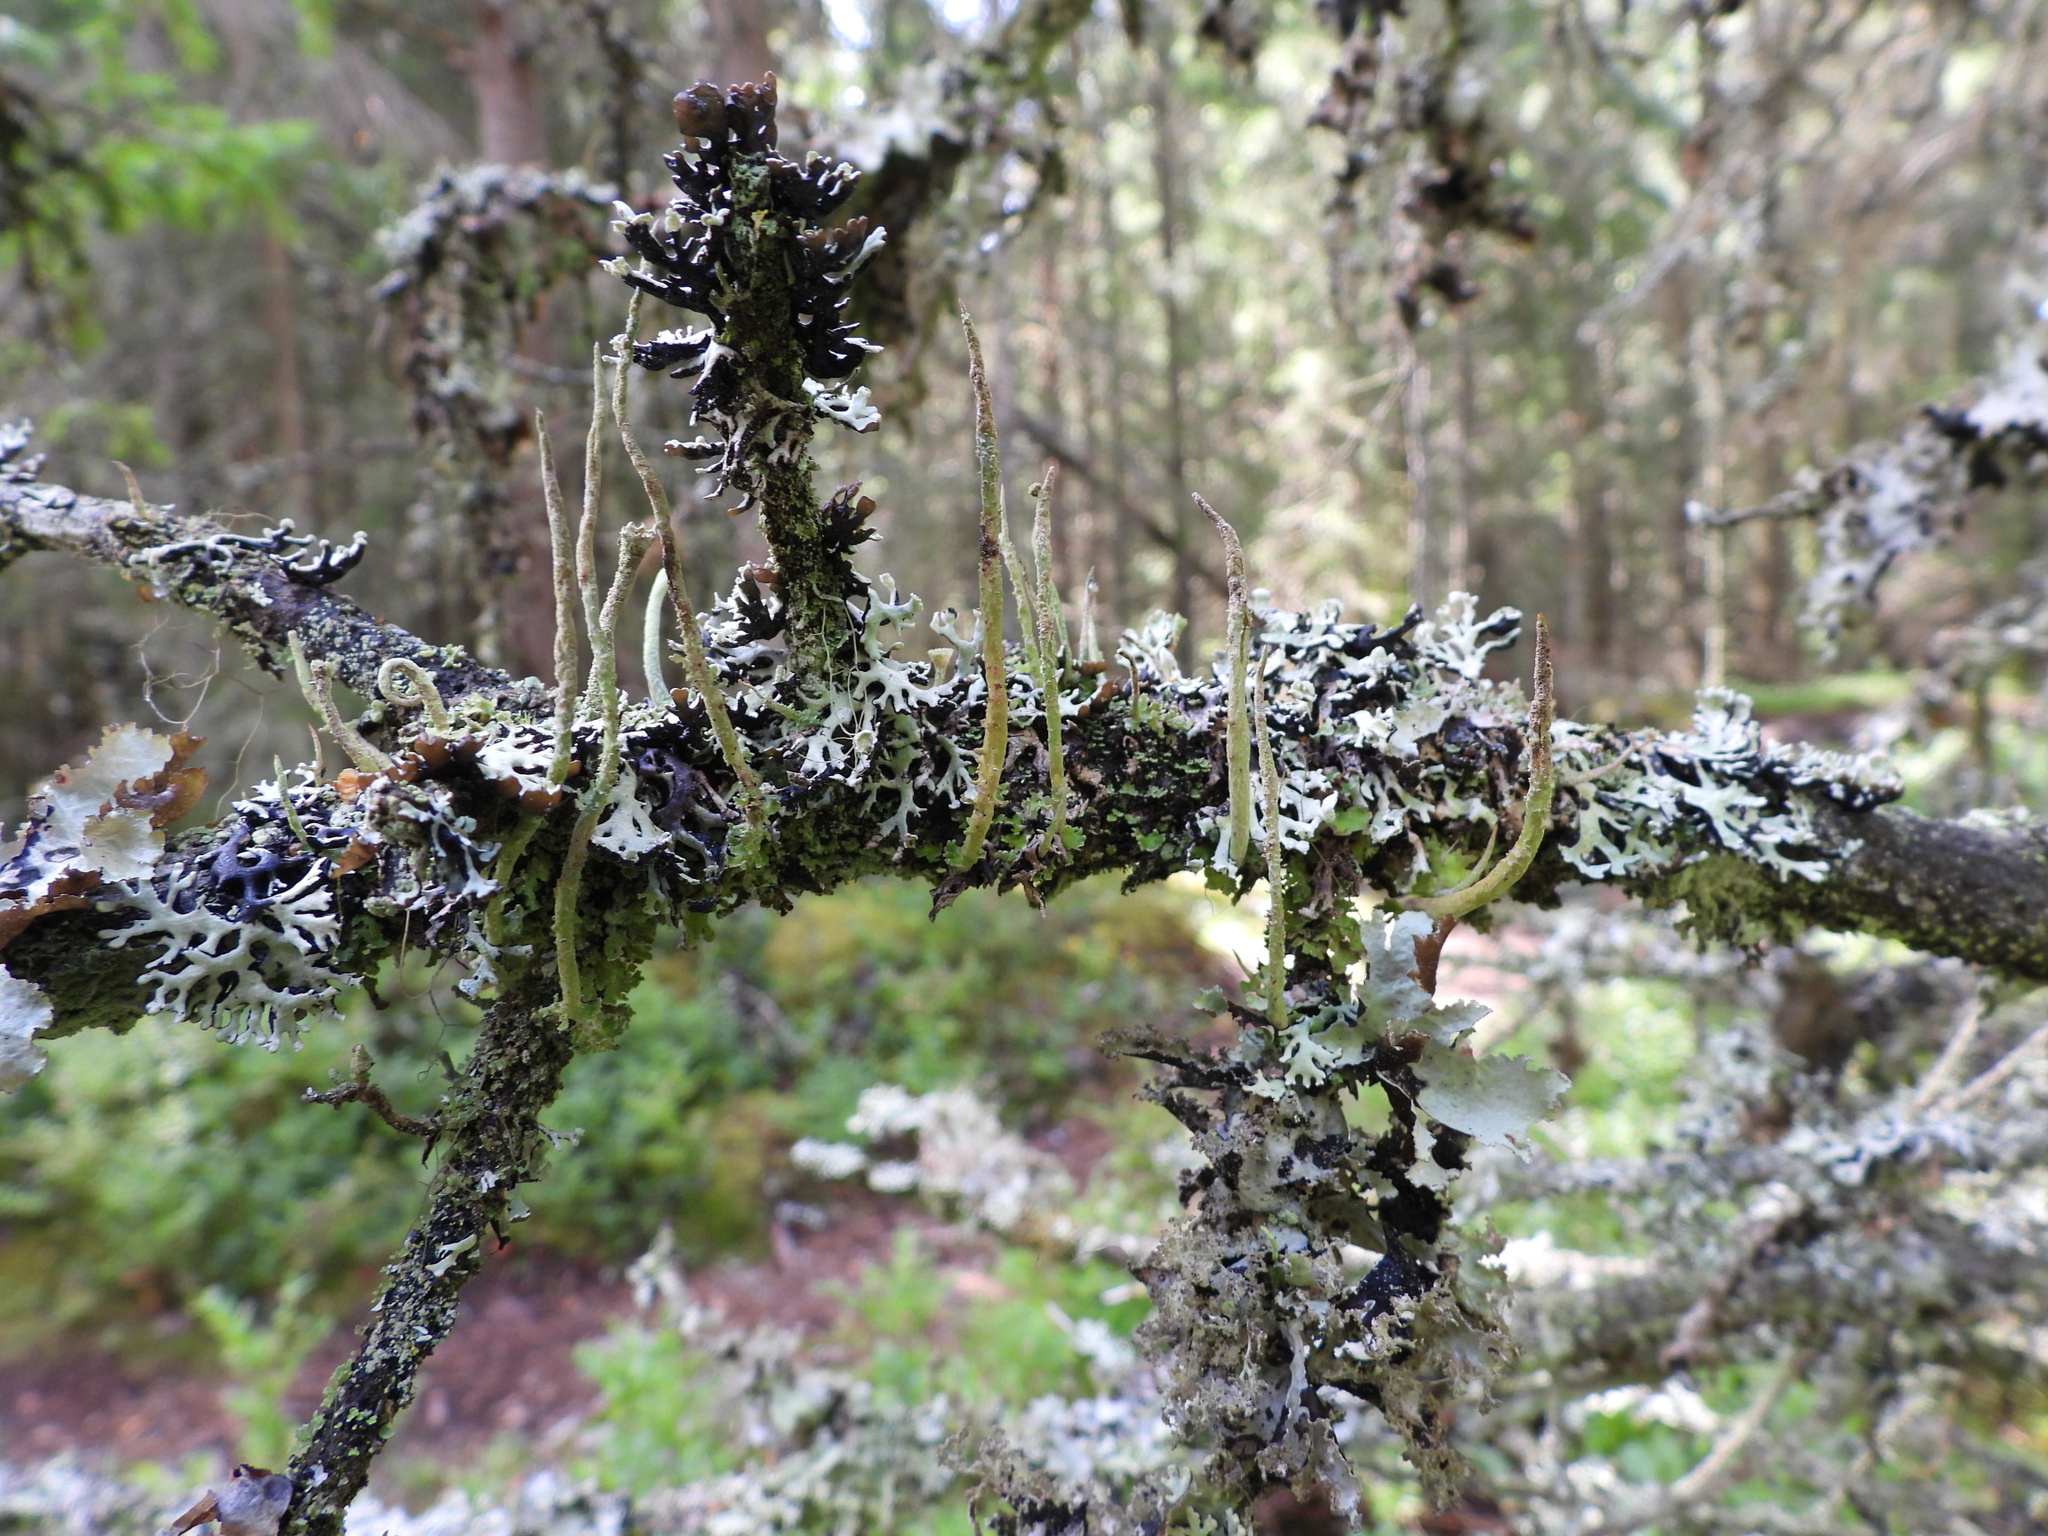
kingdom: Fungi
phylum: Ascomycota
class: Lecanoromycetes
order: Lecanorales
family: Cladoniaceae
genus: Cladonia
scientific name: Cladonia cornuta
